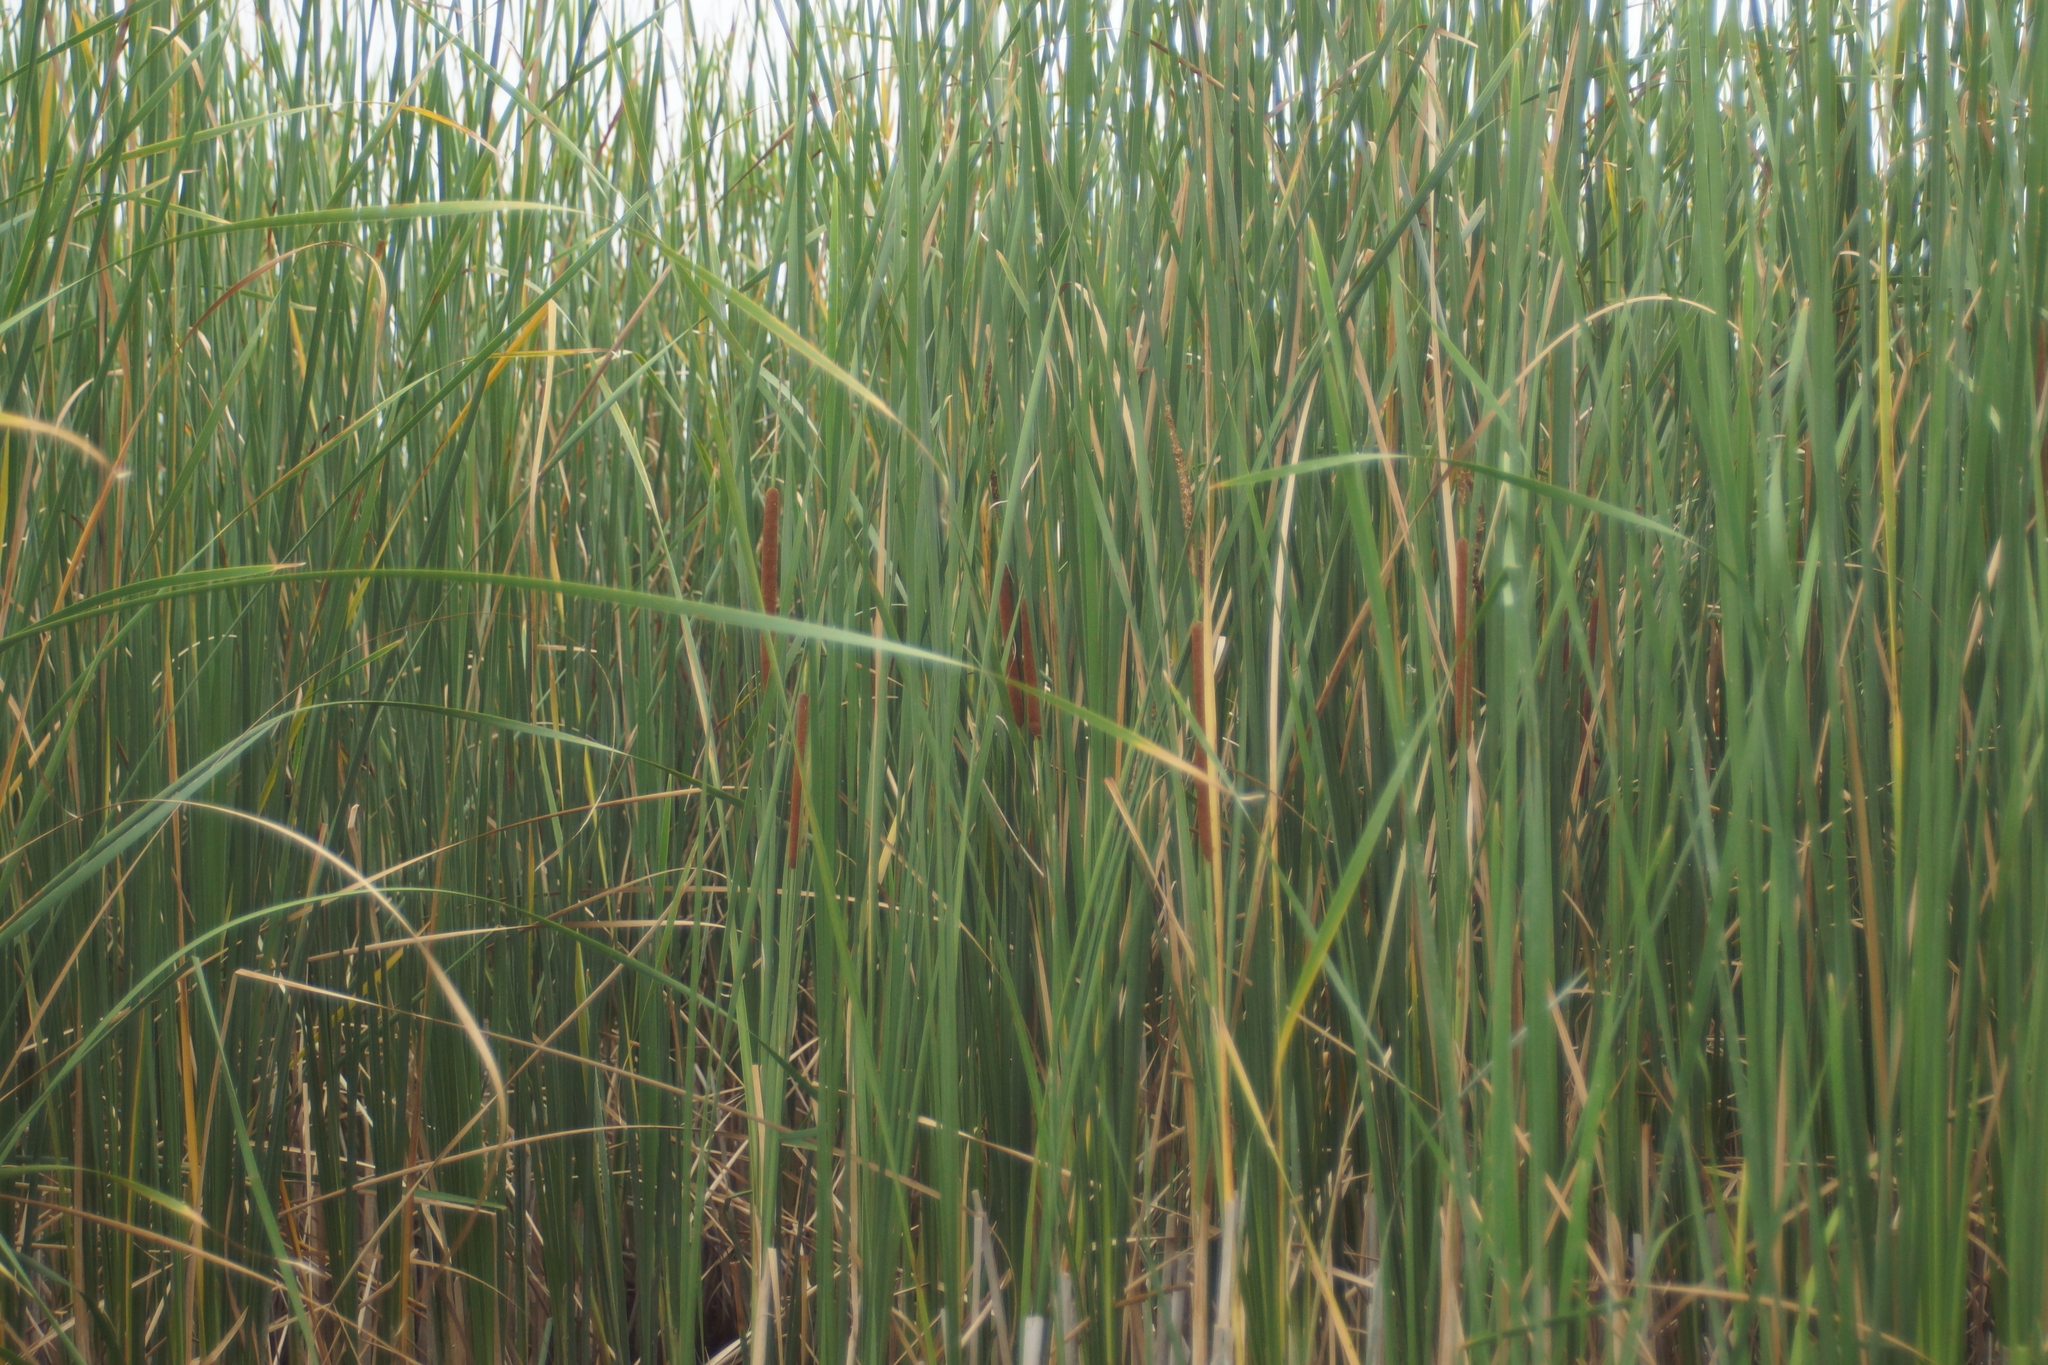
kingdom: Plantae
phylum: Tracheophyta
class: Liliopsida
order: Poales
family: Typhaceae
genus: Typha
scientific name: Typha angustifolia
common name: Lesser bulrush
